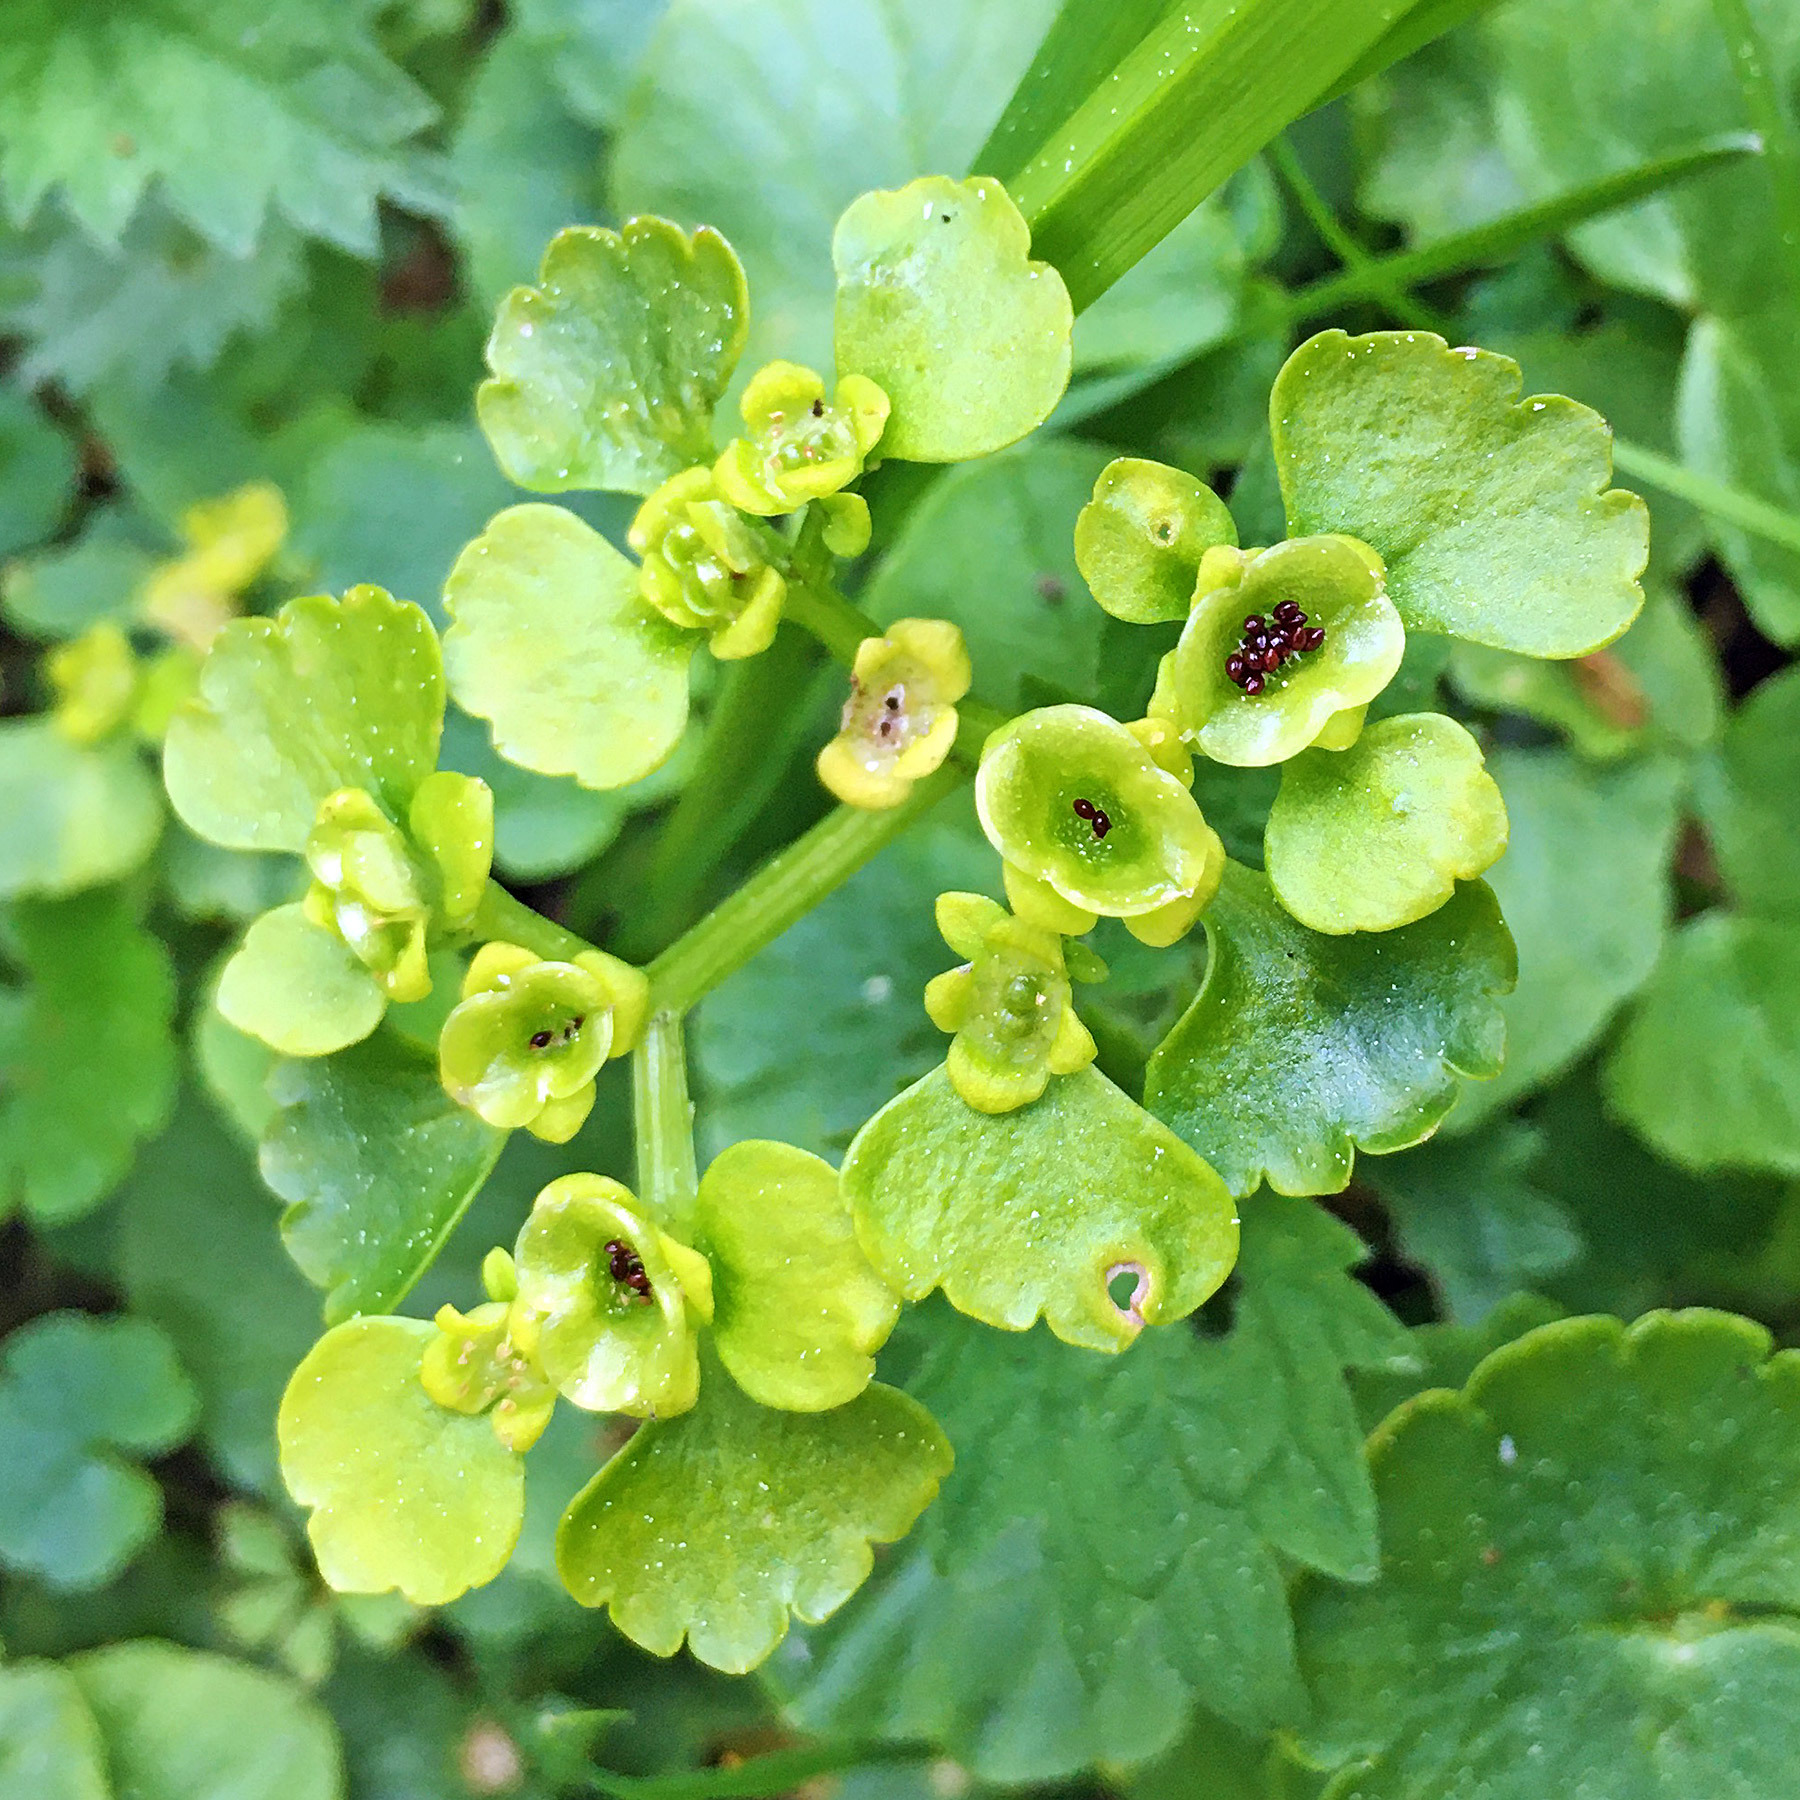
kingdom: Plantae
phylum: Tracheophyta
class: Magnoliopsida
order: Saxifragales
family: Saxifragaceae
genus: Chrysosplenium
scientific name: Chrysosplenium alternifolium
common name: Alternate-leaved golden-saxifrage
